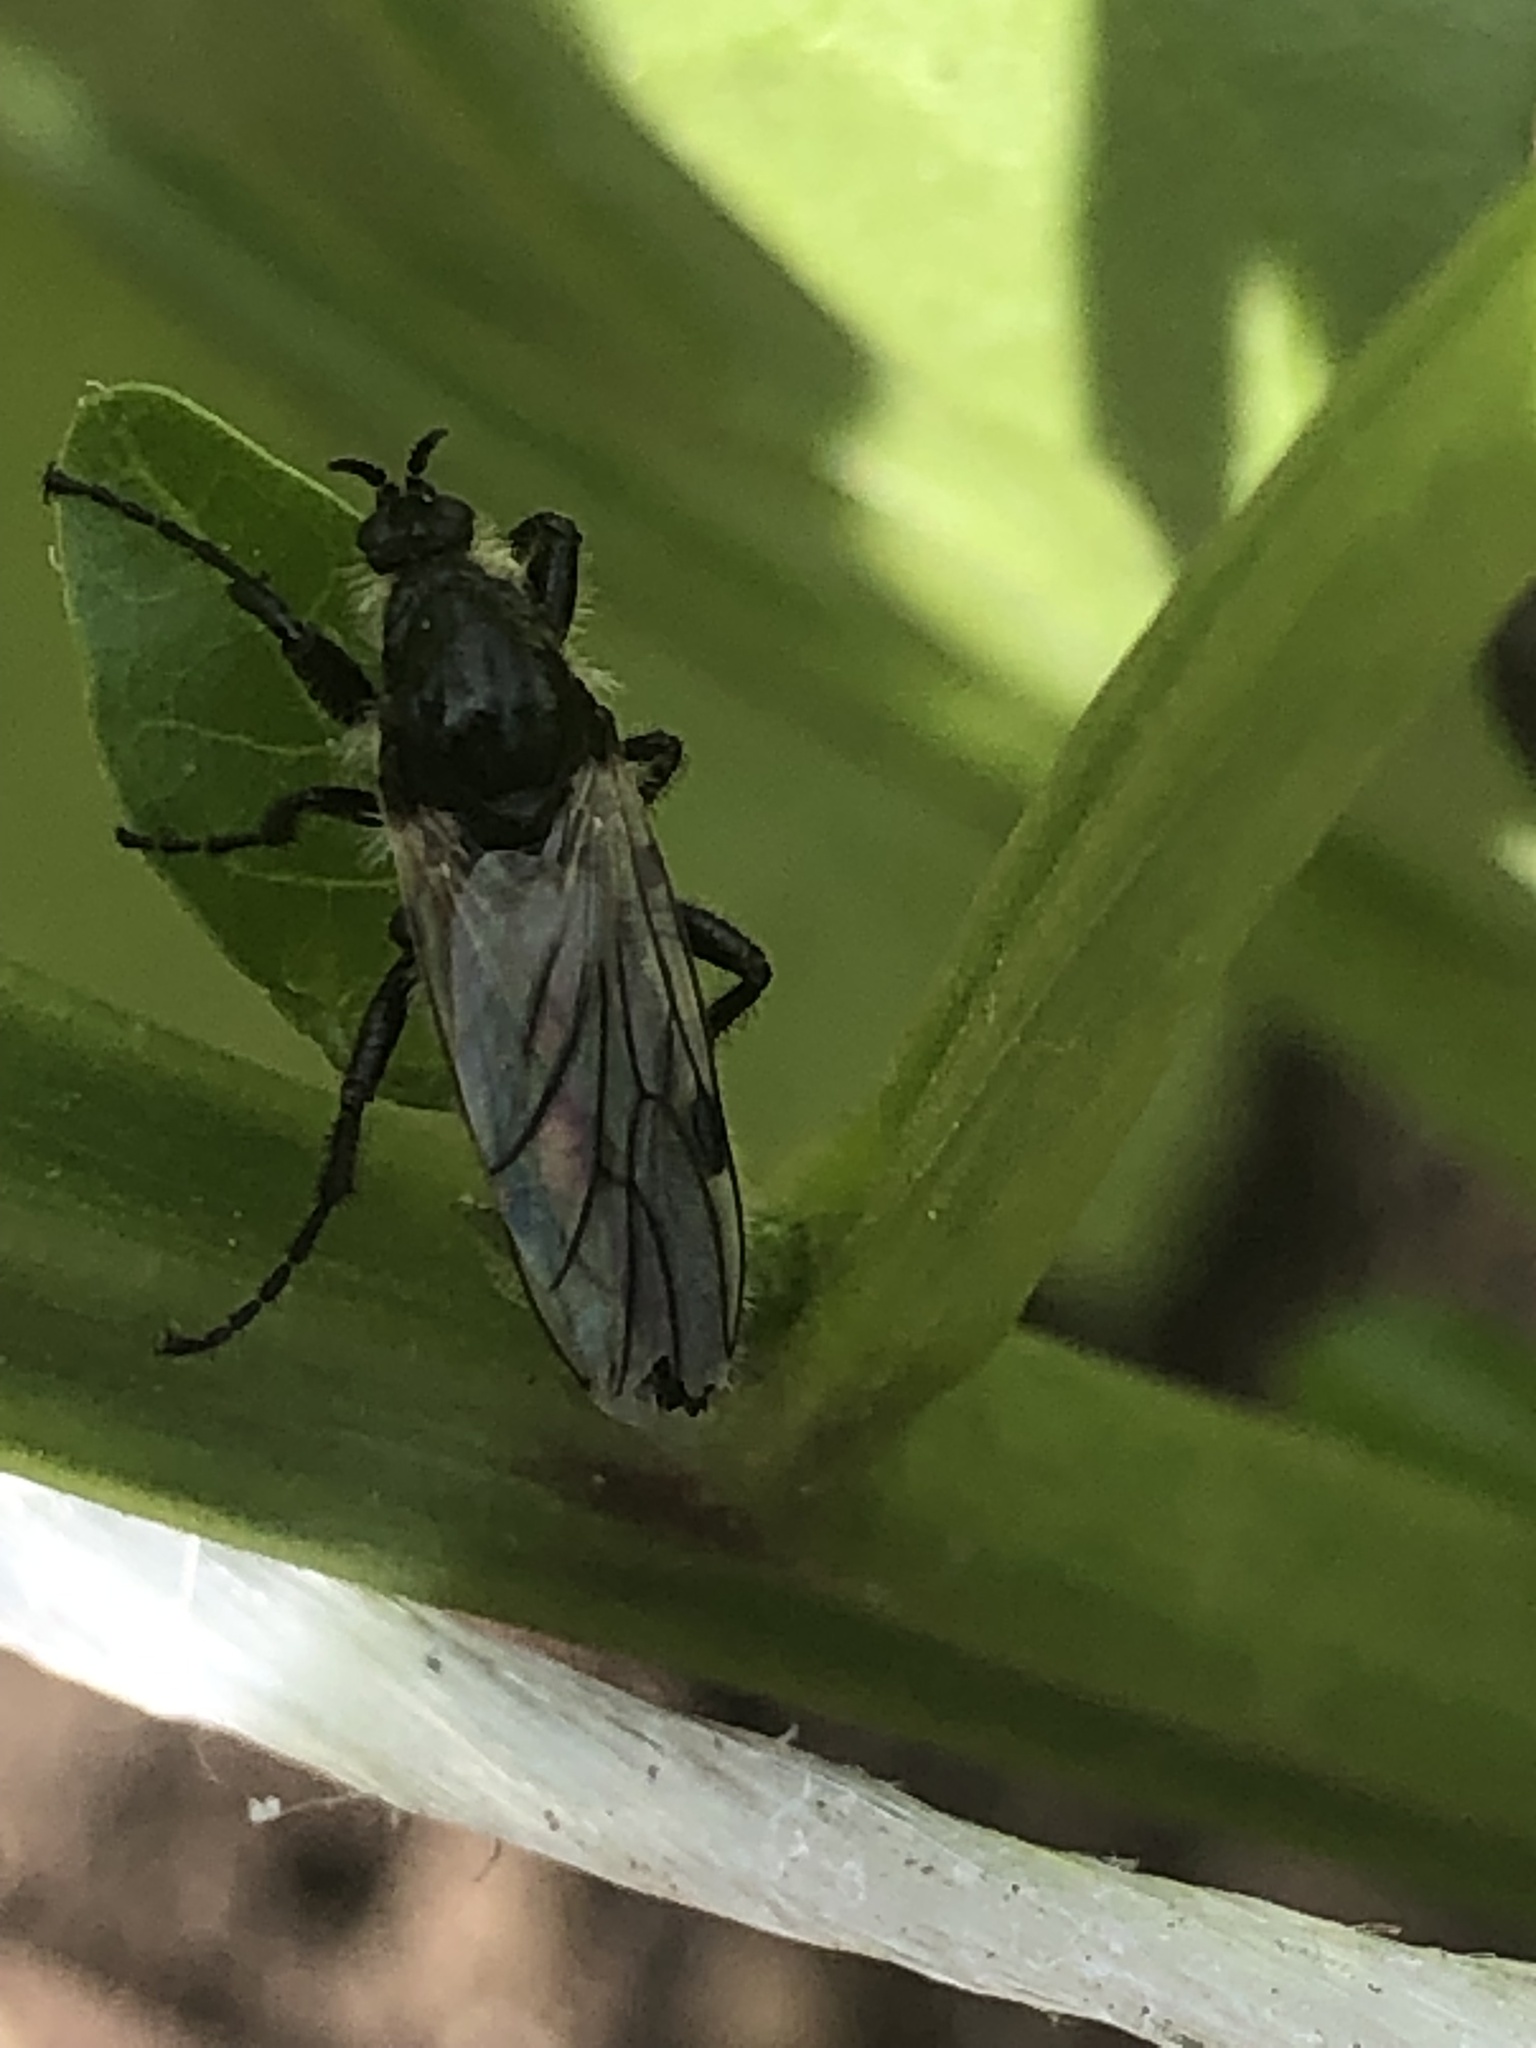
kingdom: Animalia
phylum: Arthropoda
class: Insecta
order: Diptera
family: Bibionidae
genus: Bibio
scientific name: Bibio albipennis
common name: White-winged march fly
